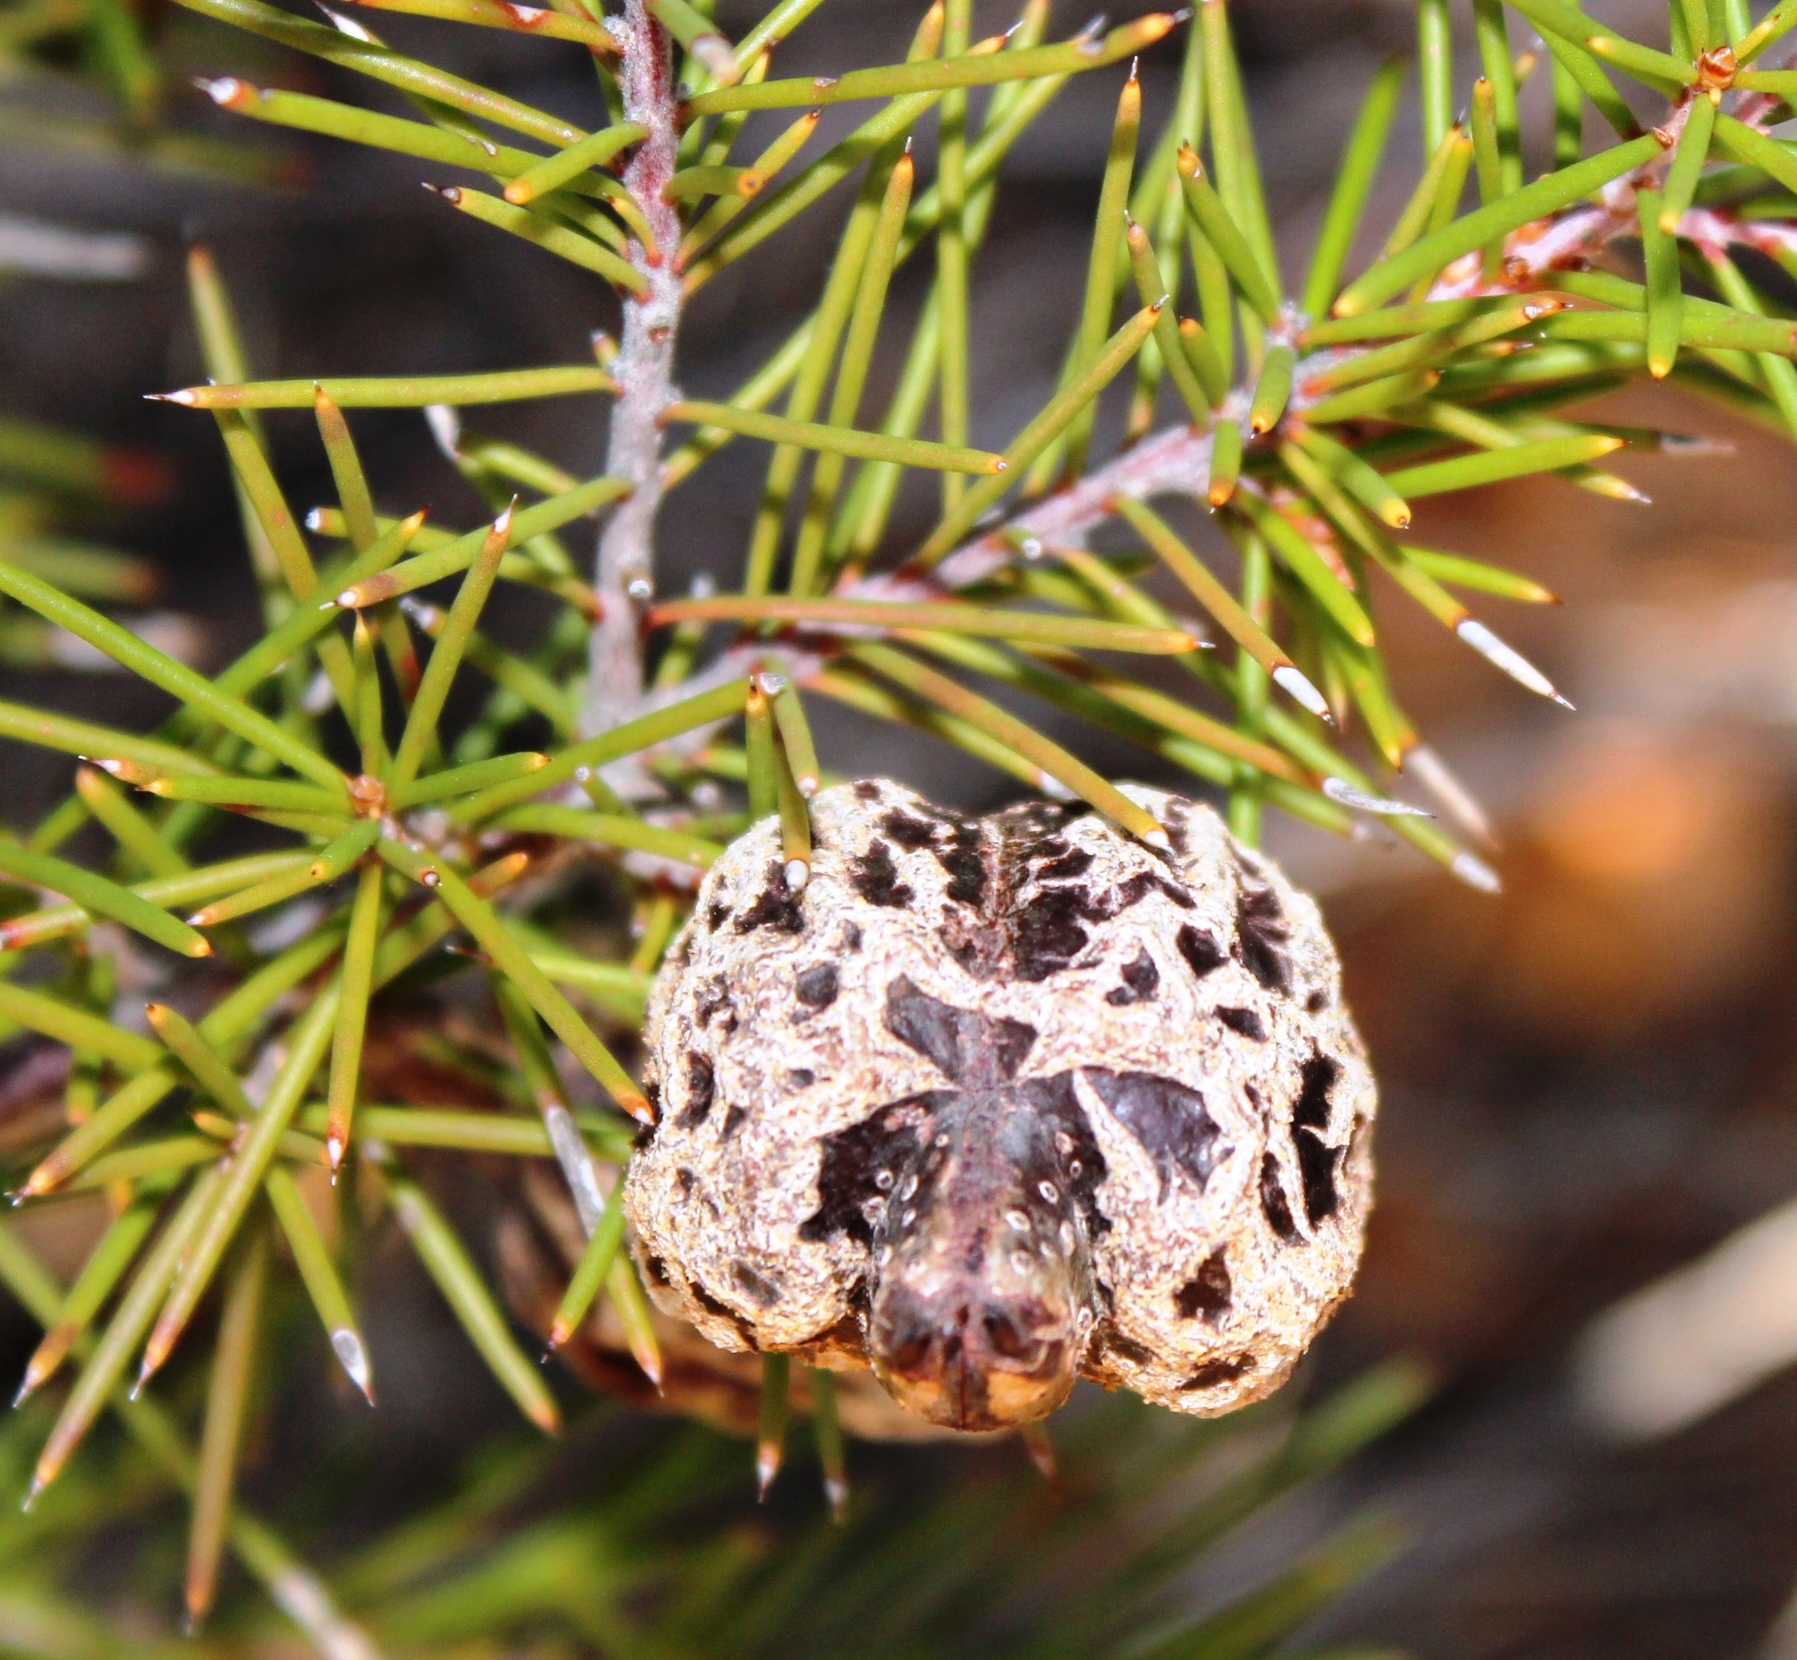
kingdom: Plantae
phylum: Tracheophyta
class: Magnoliopsida
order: Proteales
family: Proteaceae
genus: Hakea
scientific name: Hakea sericea
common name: Needle bush
